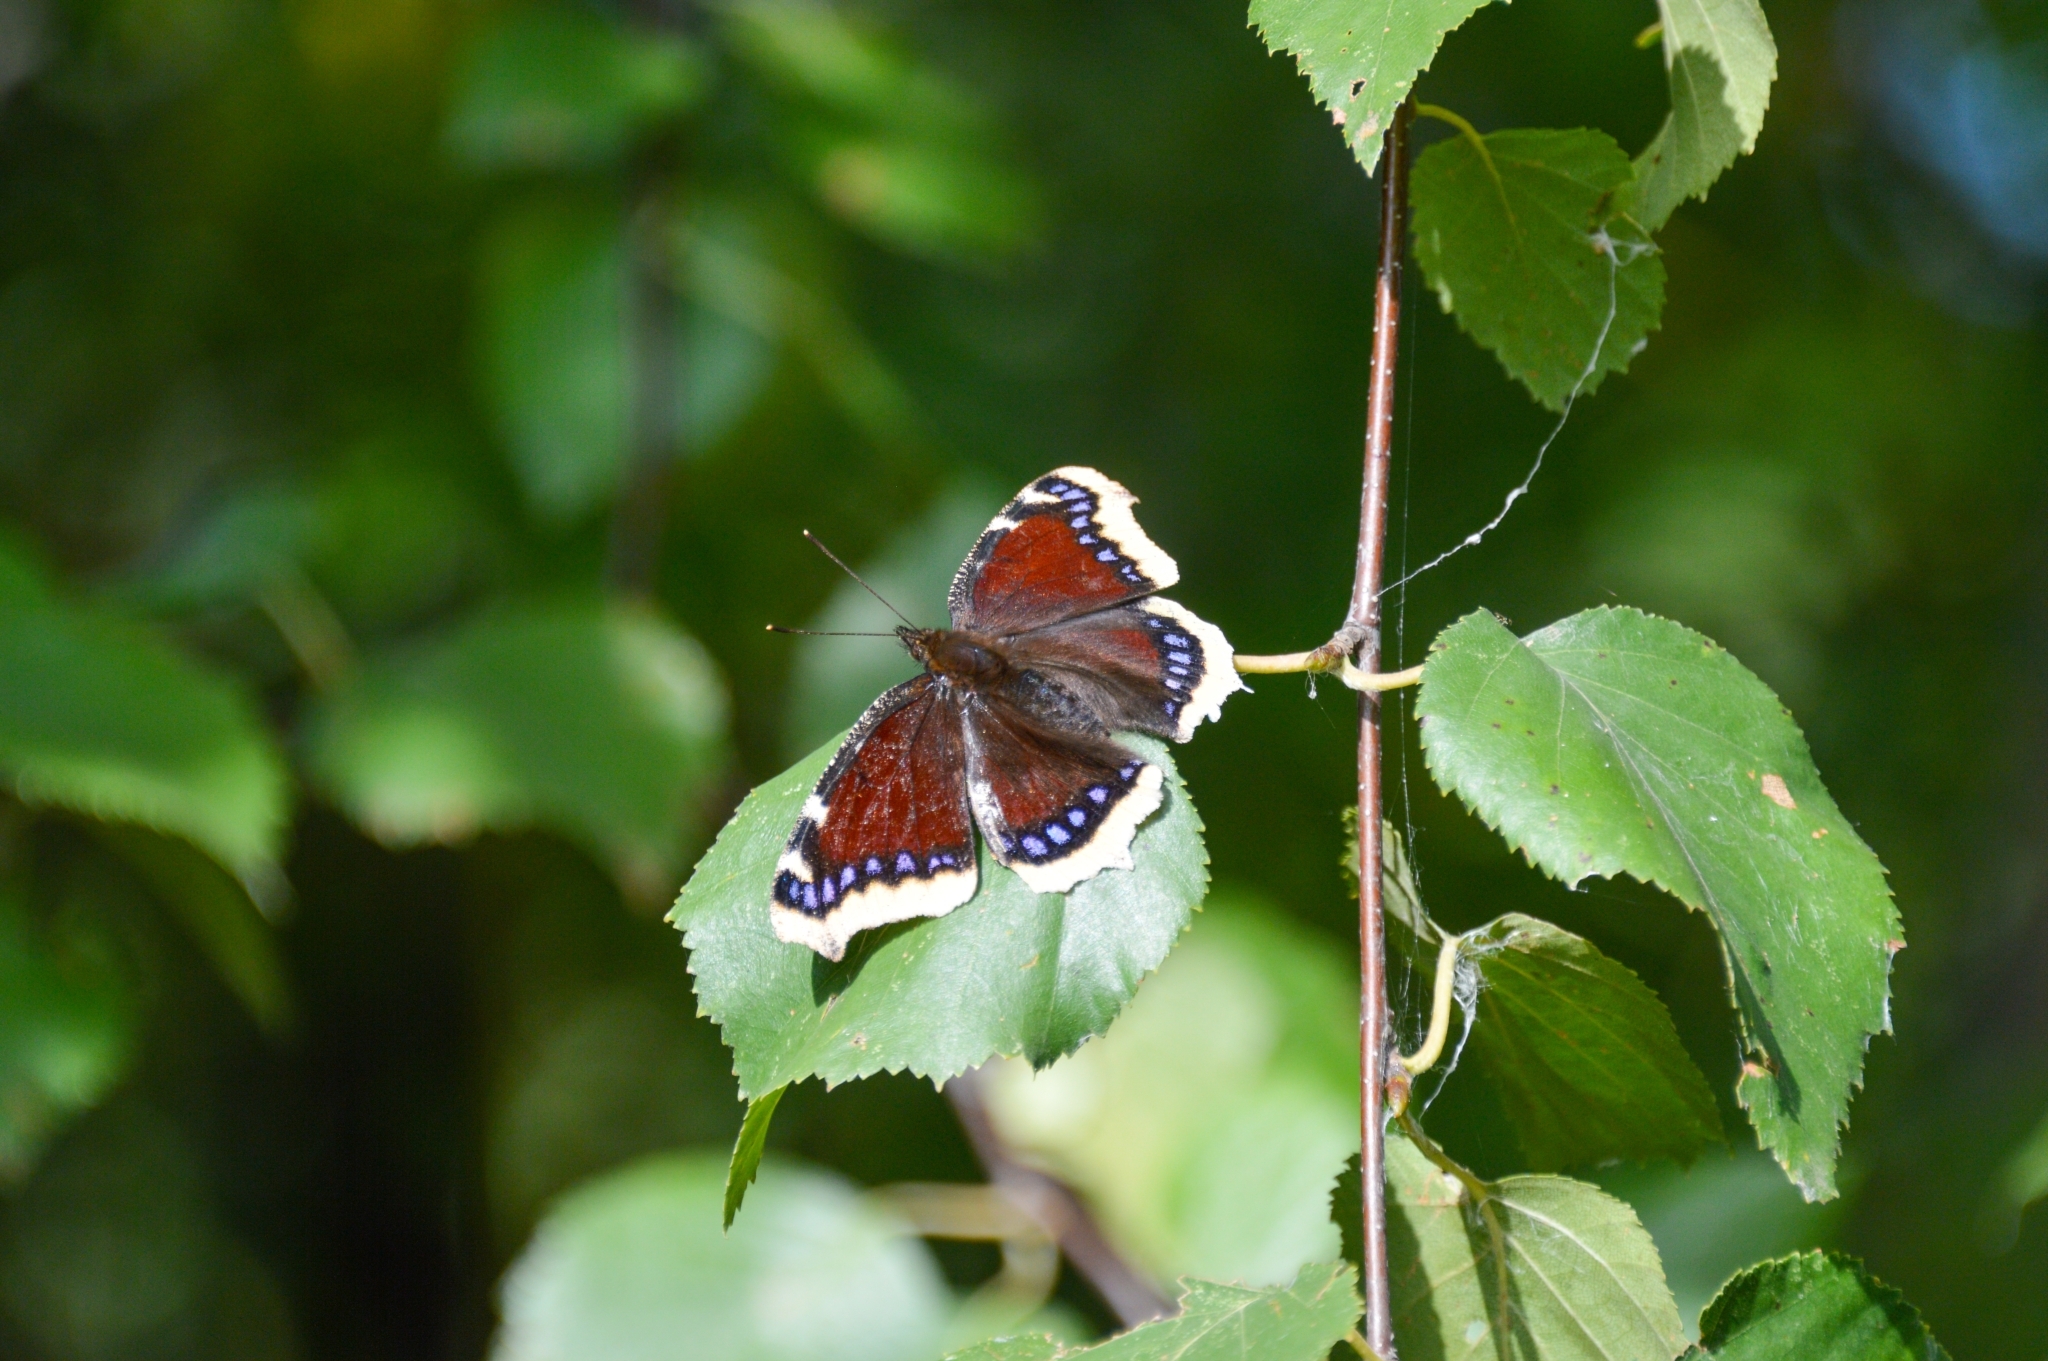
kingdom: Animalia
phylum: Arthropoda
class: Insecta
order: Lepidoptera
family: Nymphalidae
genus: Nymphalis
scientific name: Nymphalis antiopa
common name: Camberwell beauty
